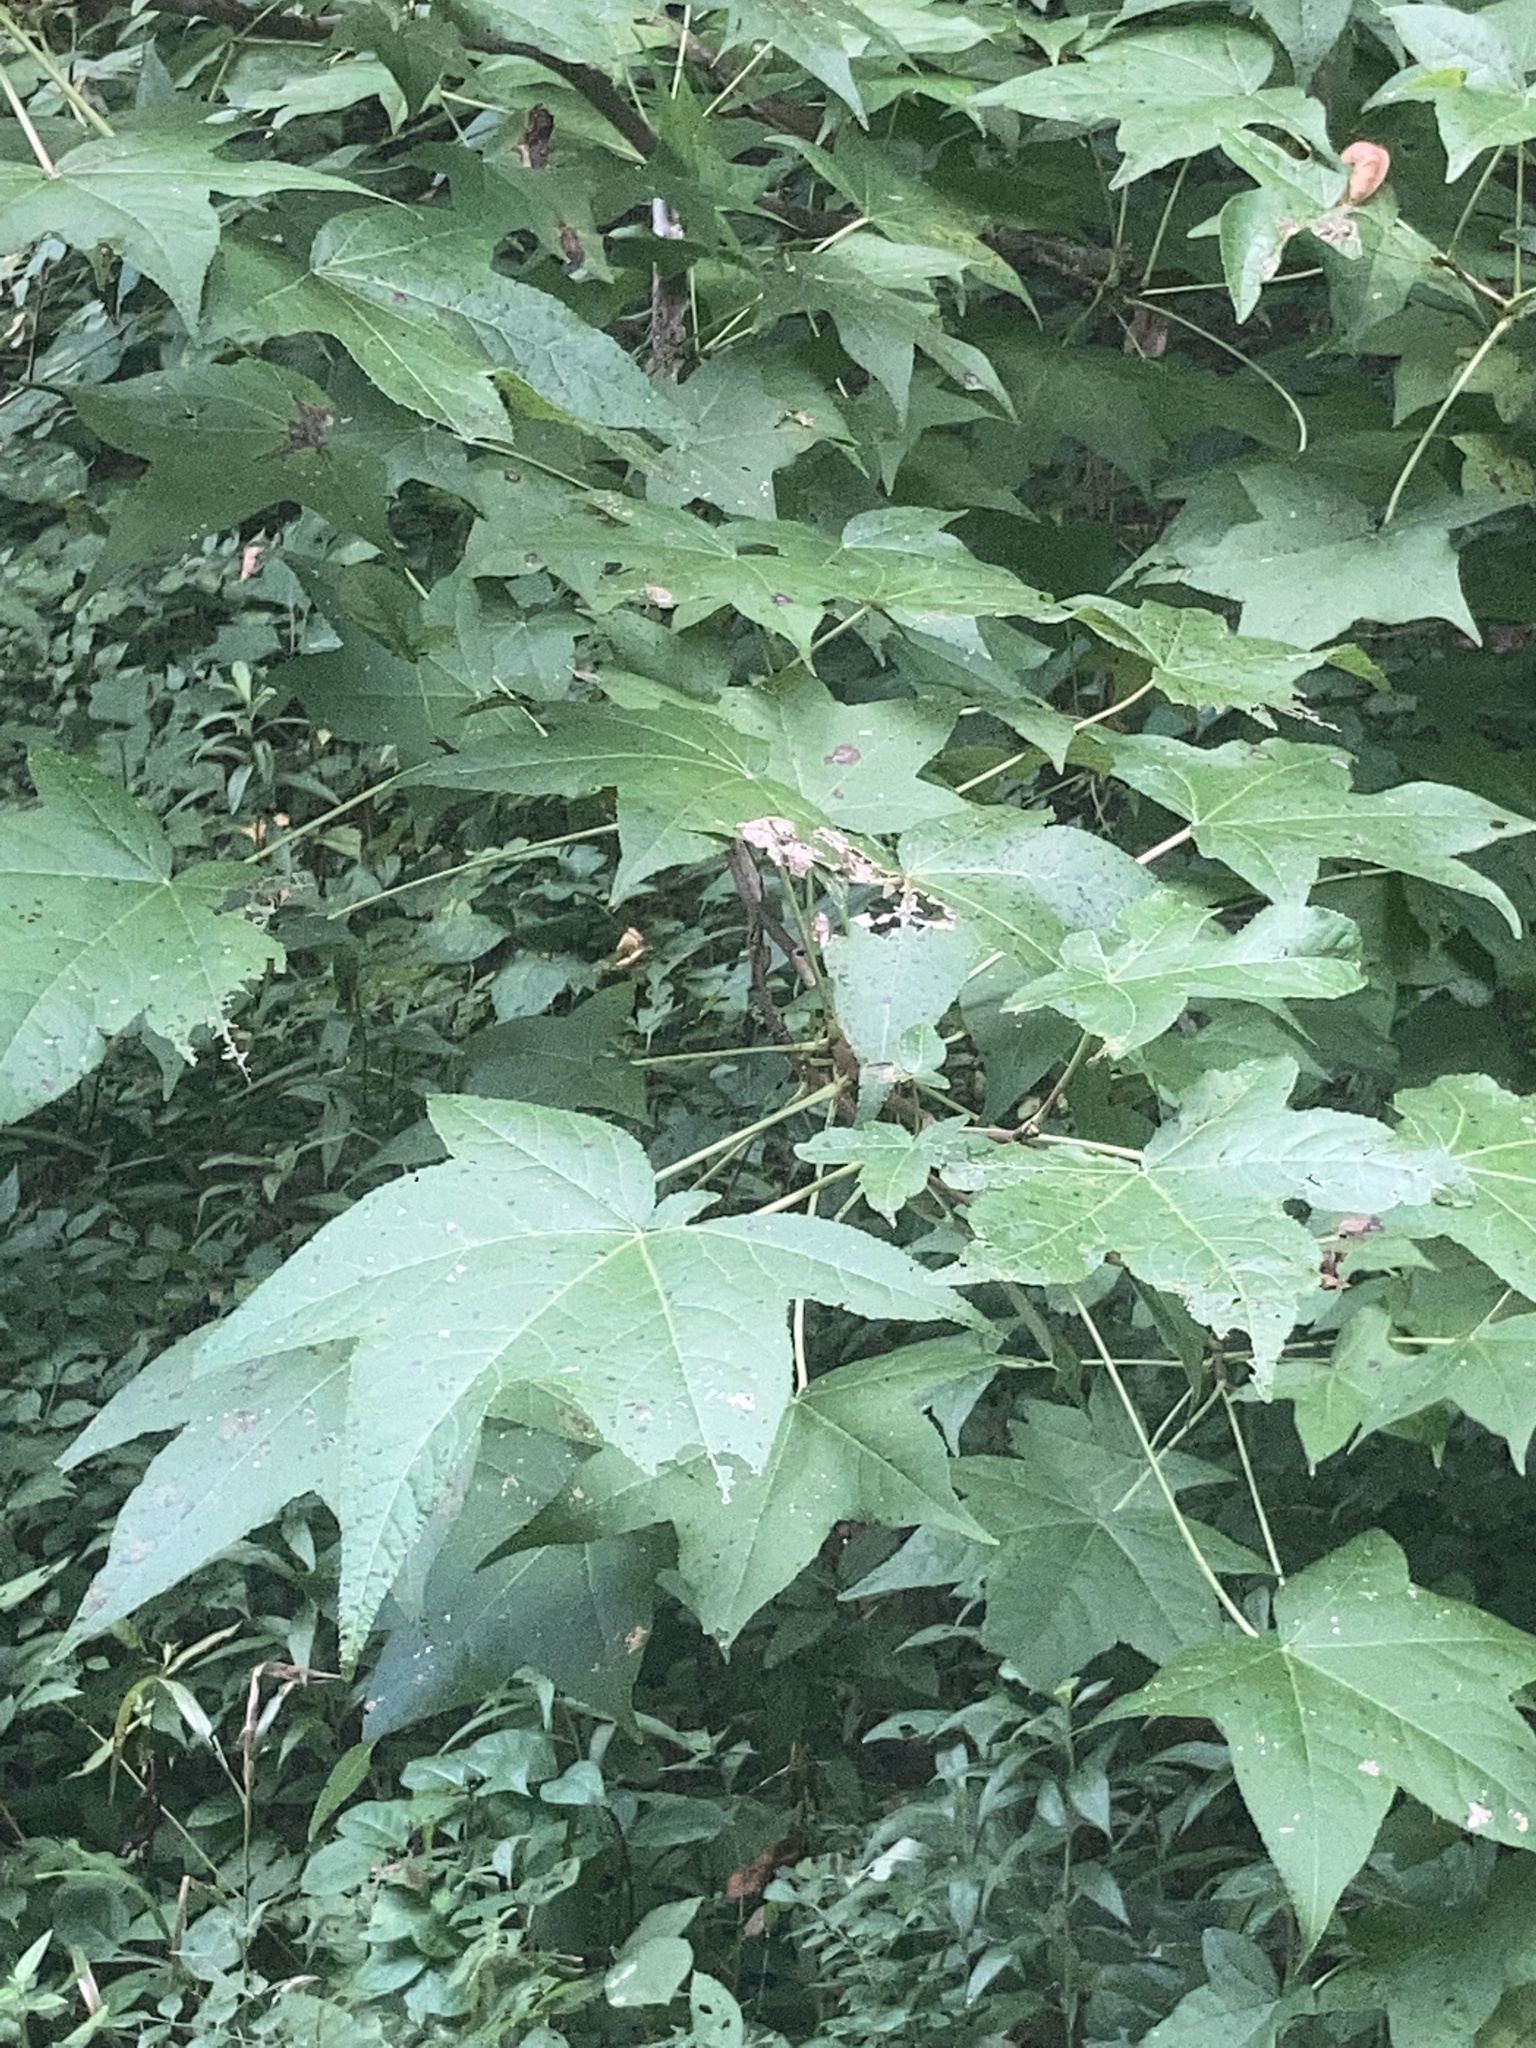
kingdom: Plantae
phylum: Tracheophyta
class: Magnoliopsida
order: Saxifragales
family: Altingiaceae
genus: Liquidambar
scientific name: Liquidambar styraciflua
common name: Sweet gum
